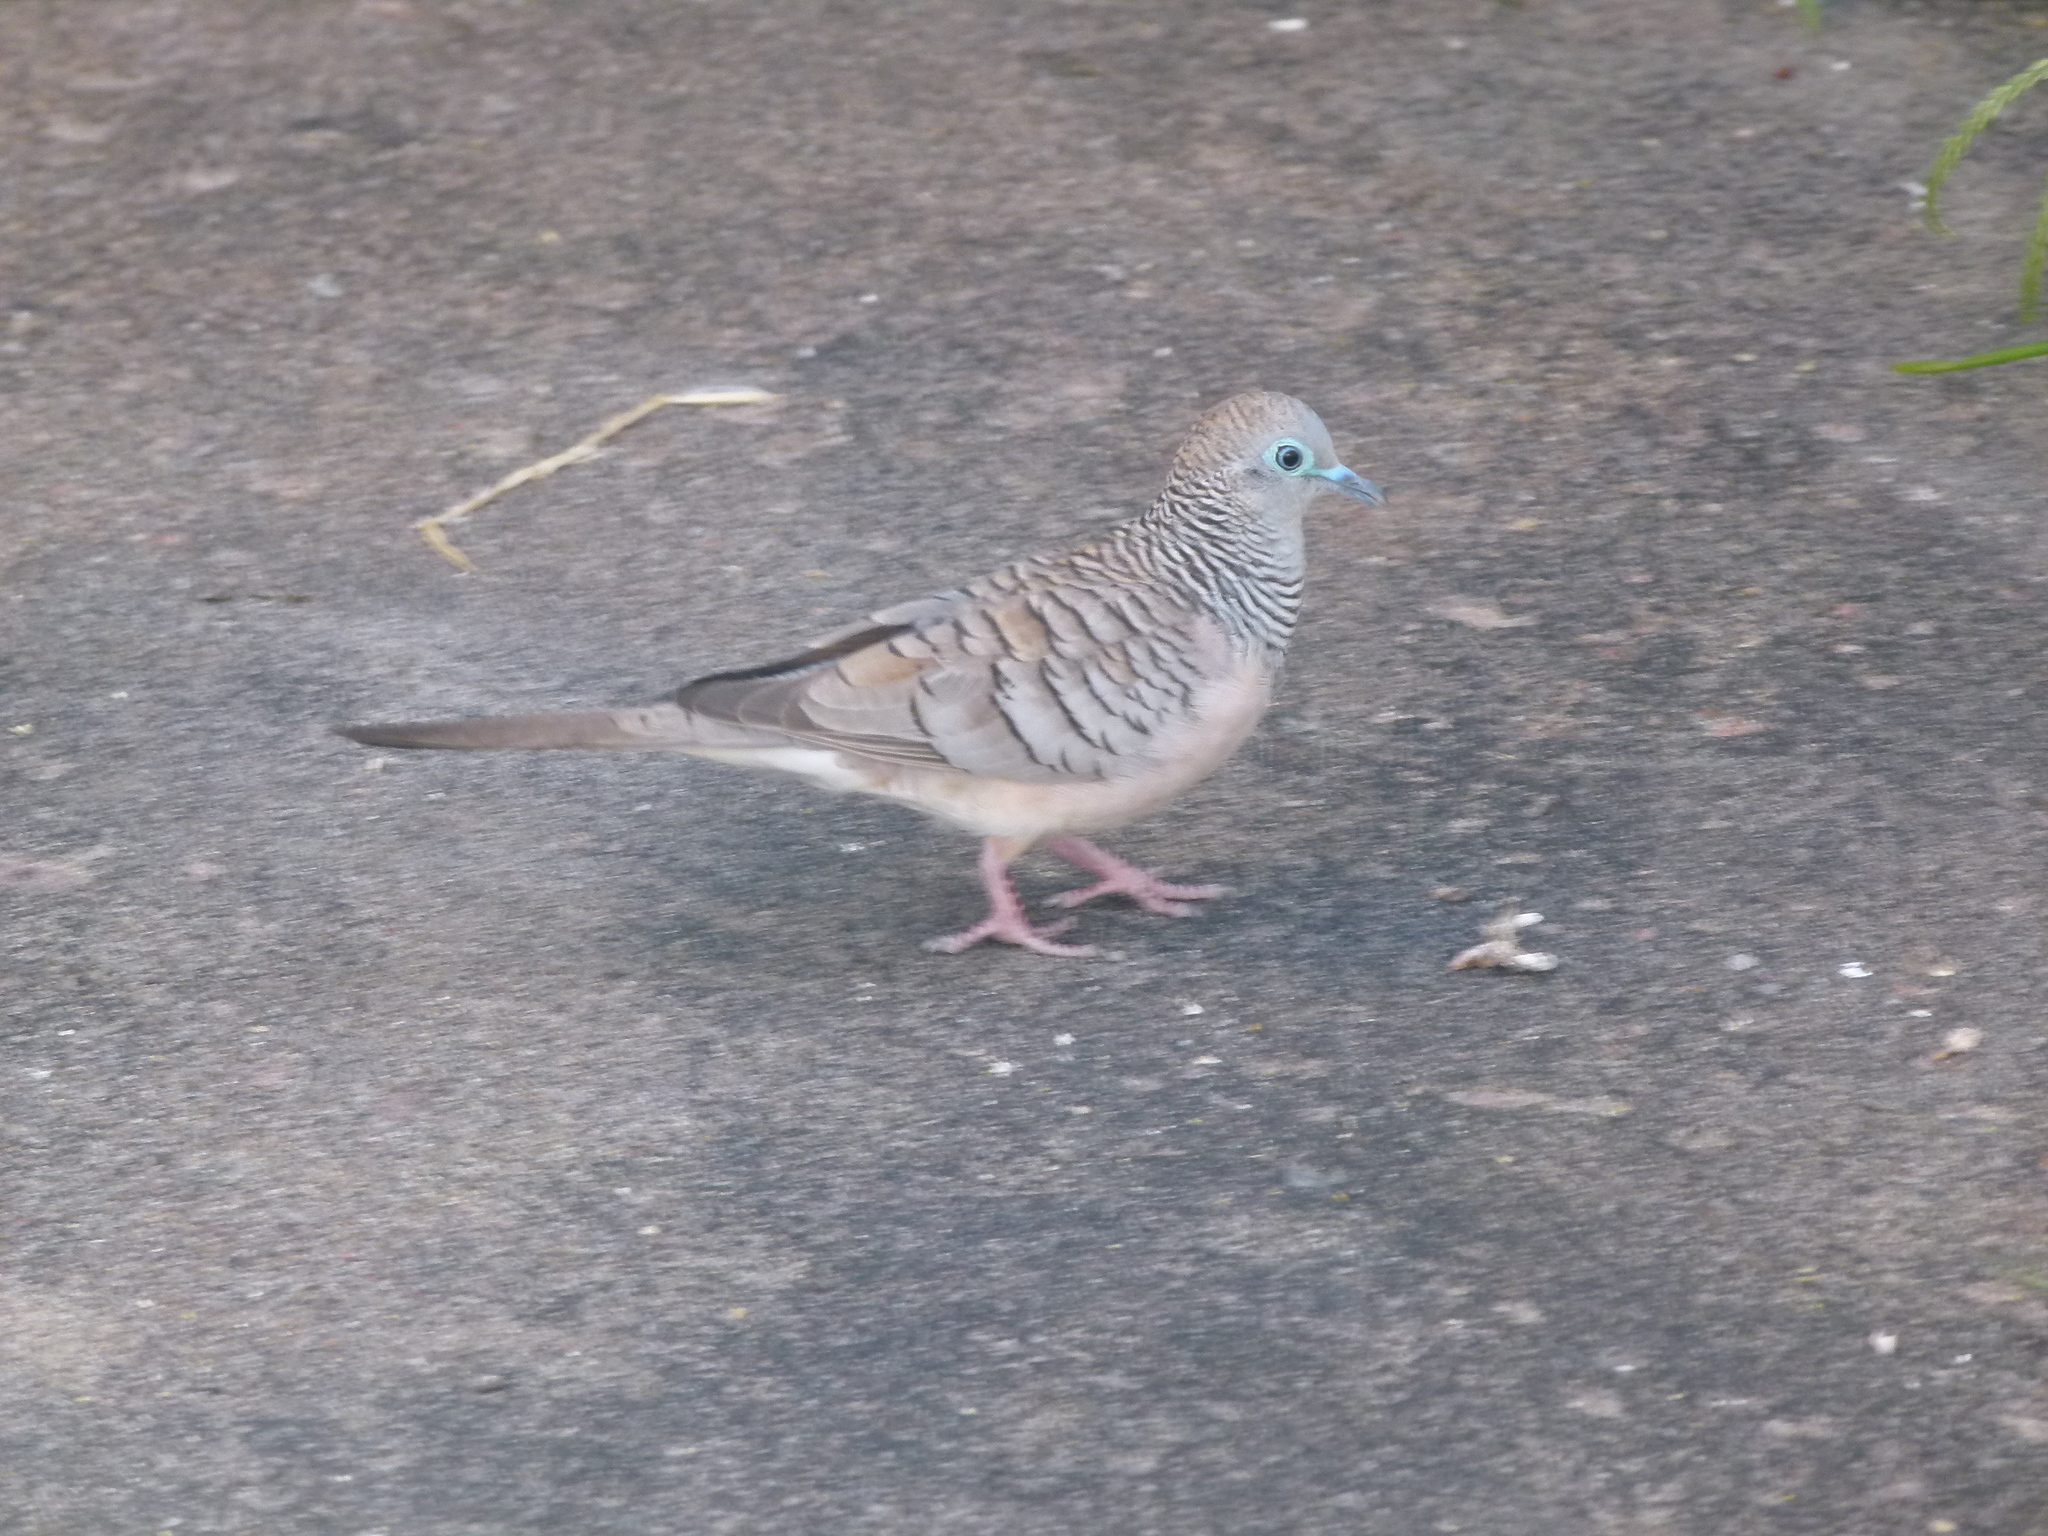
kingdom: Animalia
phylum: Chordata
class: Aves
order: Columbiformes
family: Columbidae
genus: Geopelia
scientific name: Geopelia placida
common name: Peaceful dove
